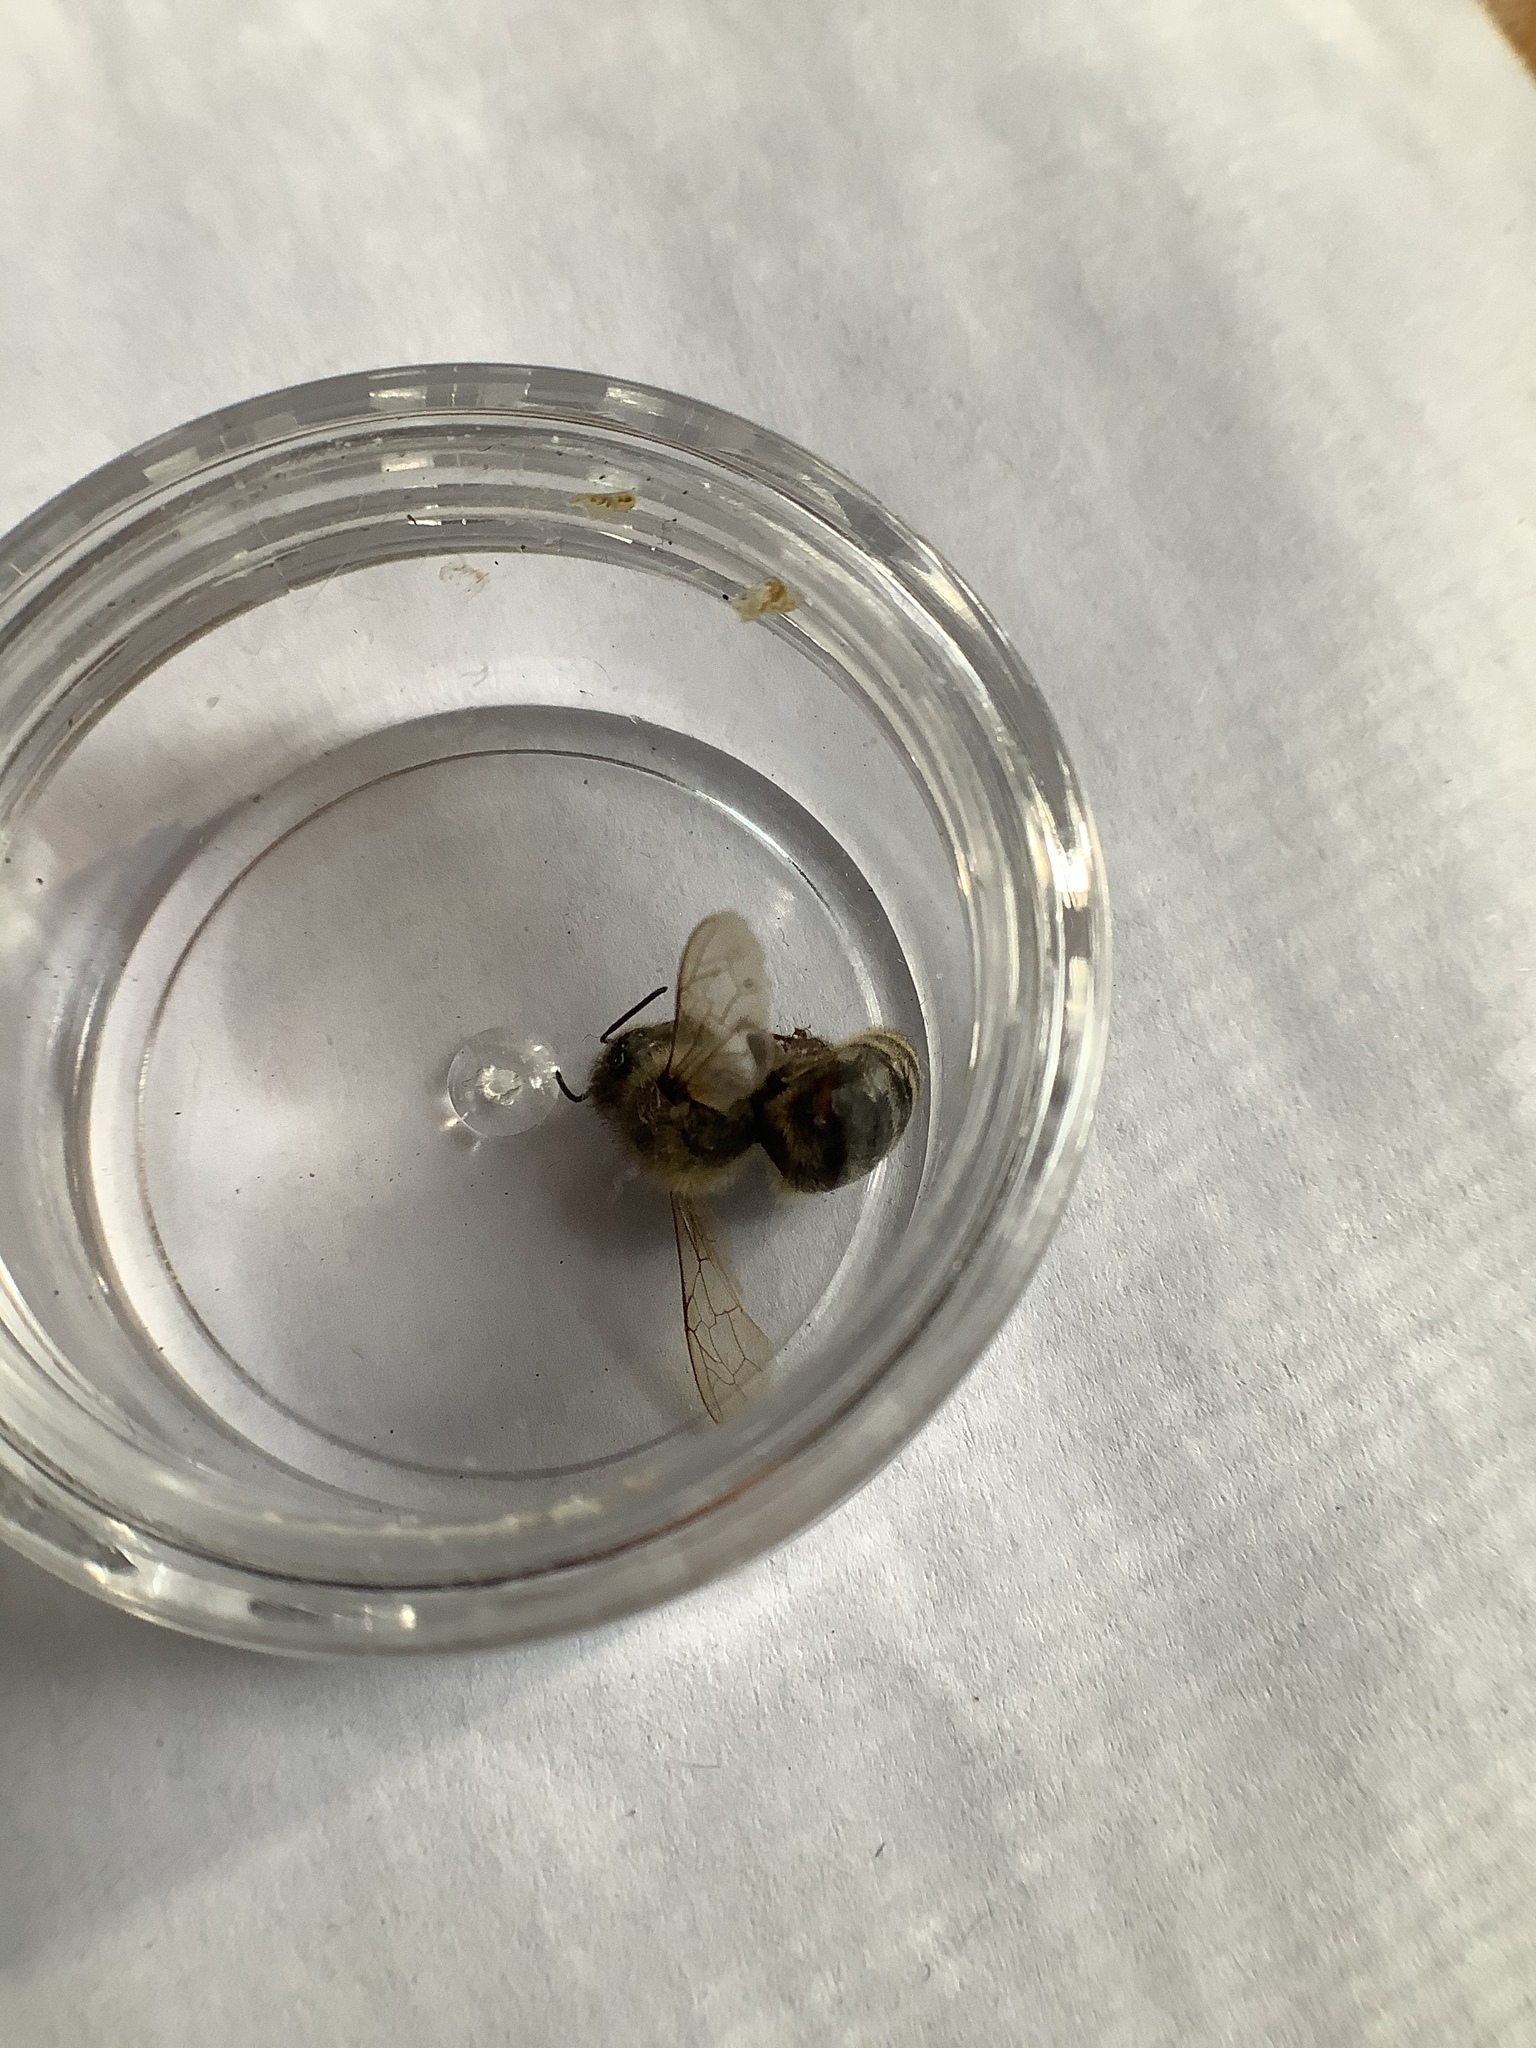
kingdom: Animalia
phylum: Arthropoda
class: Insecta
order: Hymenoptera
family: Apidae
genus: Apis
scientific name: Apis mellifera
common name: Honey bee
